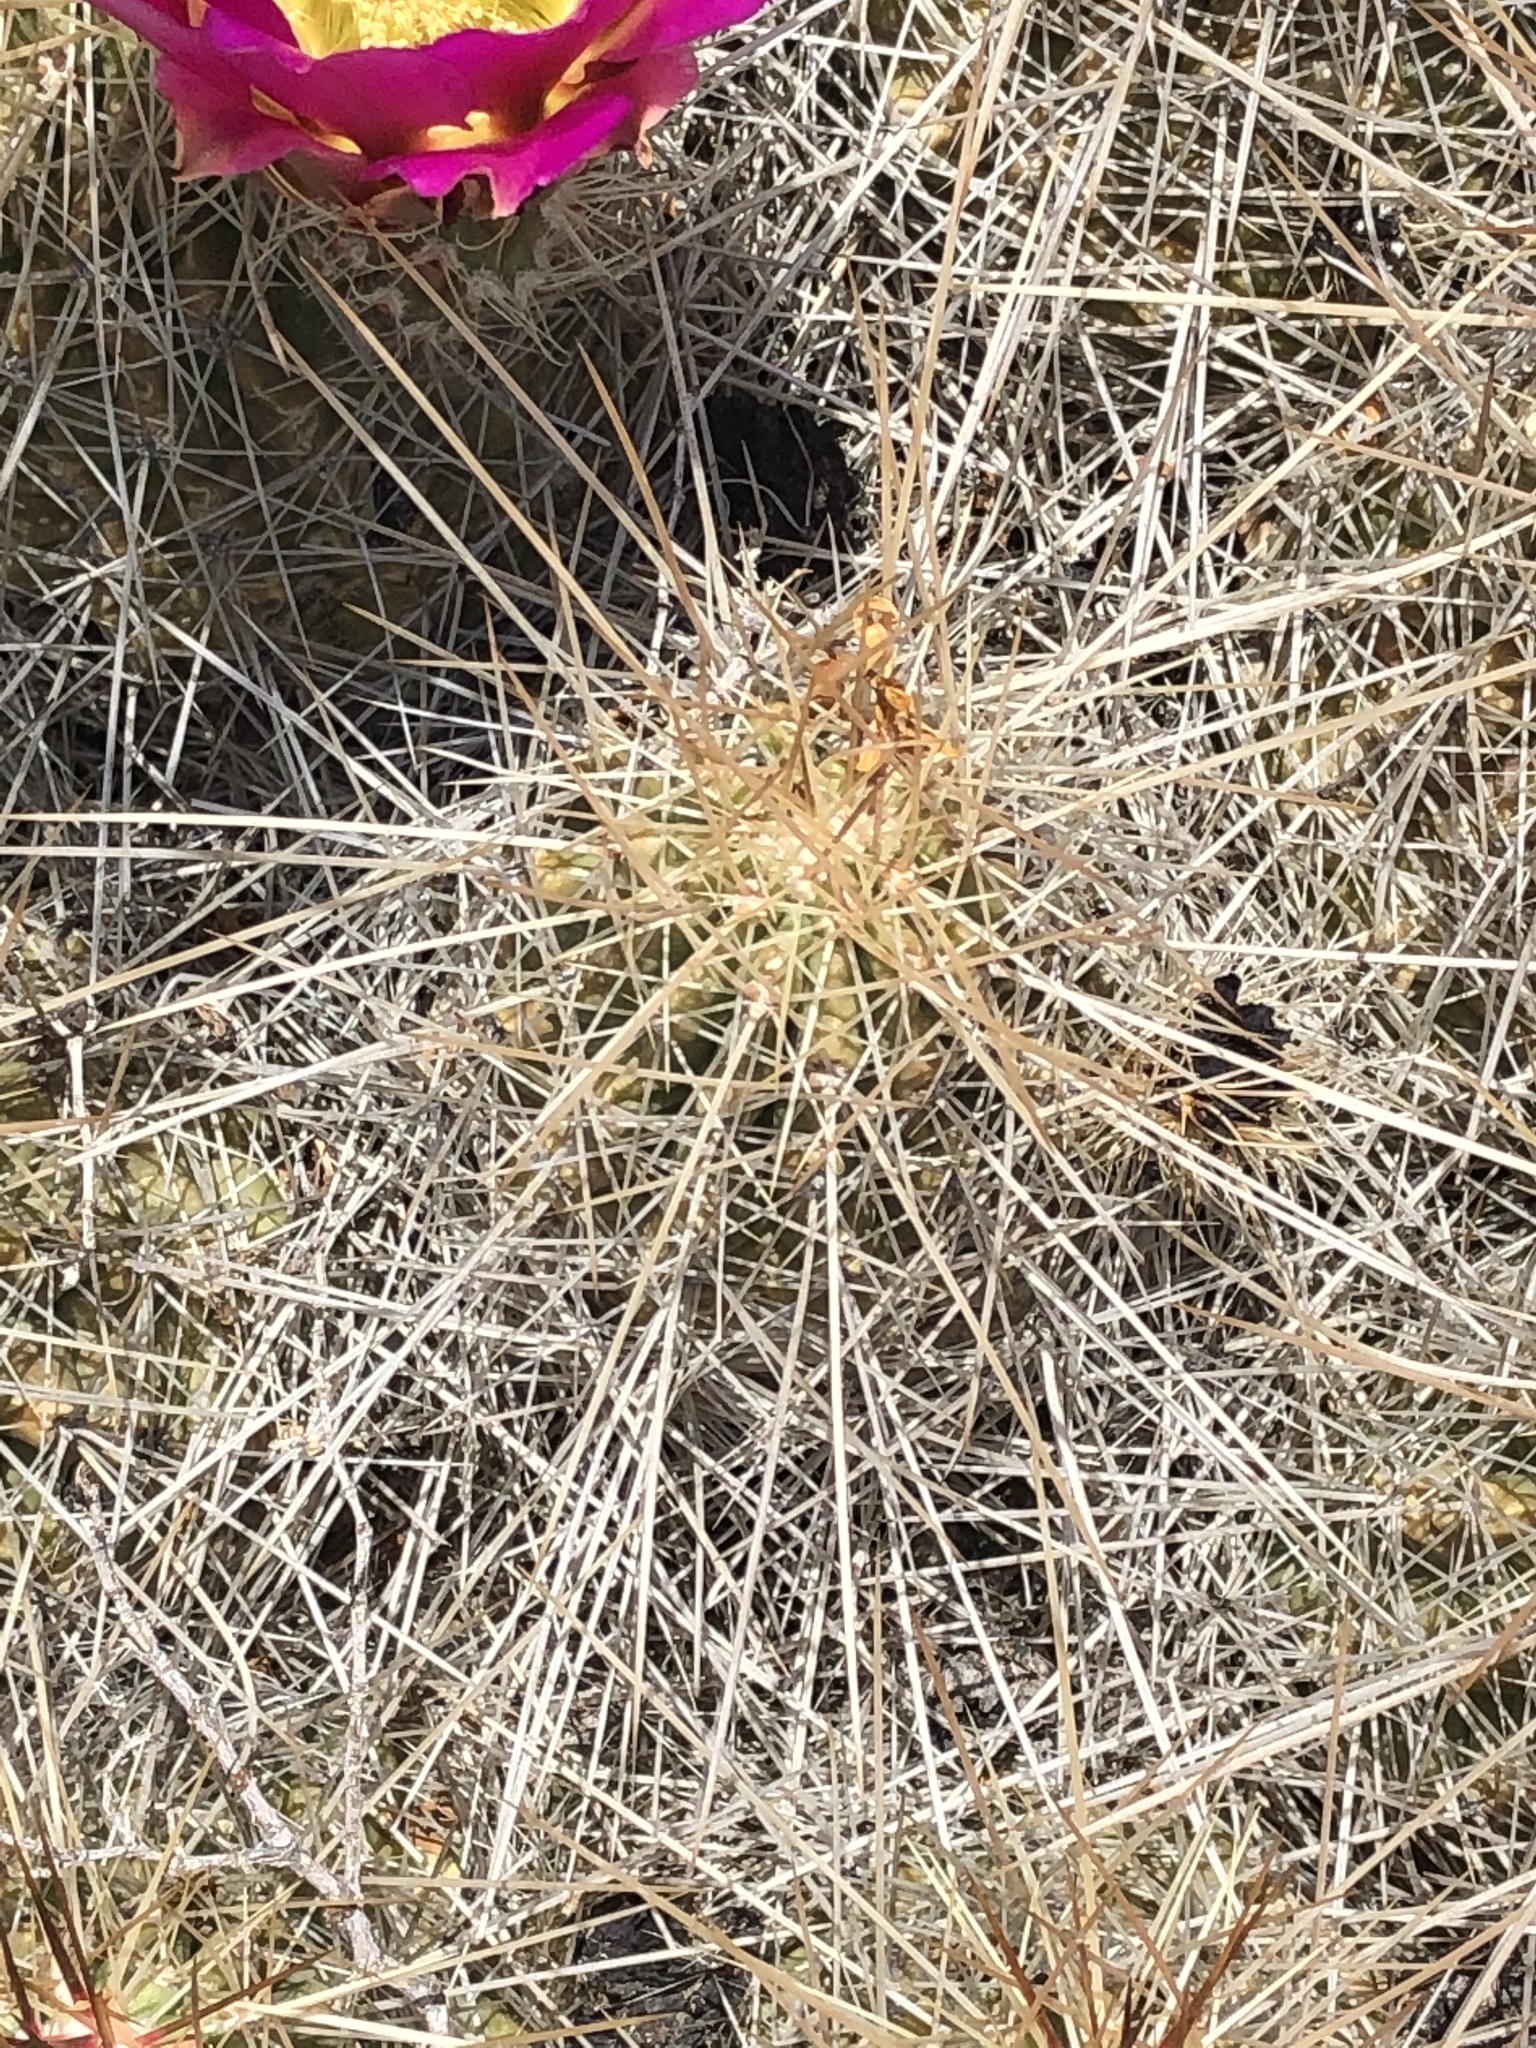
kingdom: Plantae
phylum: Tracheophyta
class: Magnoliopsida
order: Caryophyllales
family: Cactaceae
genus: Echinocereus
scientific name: Echinocereus stramineus
